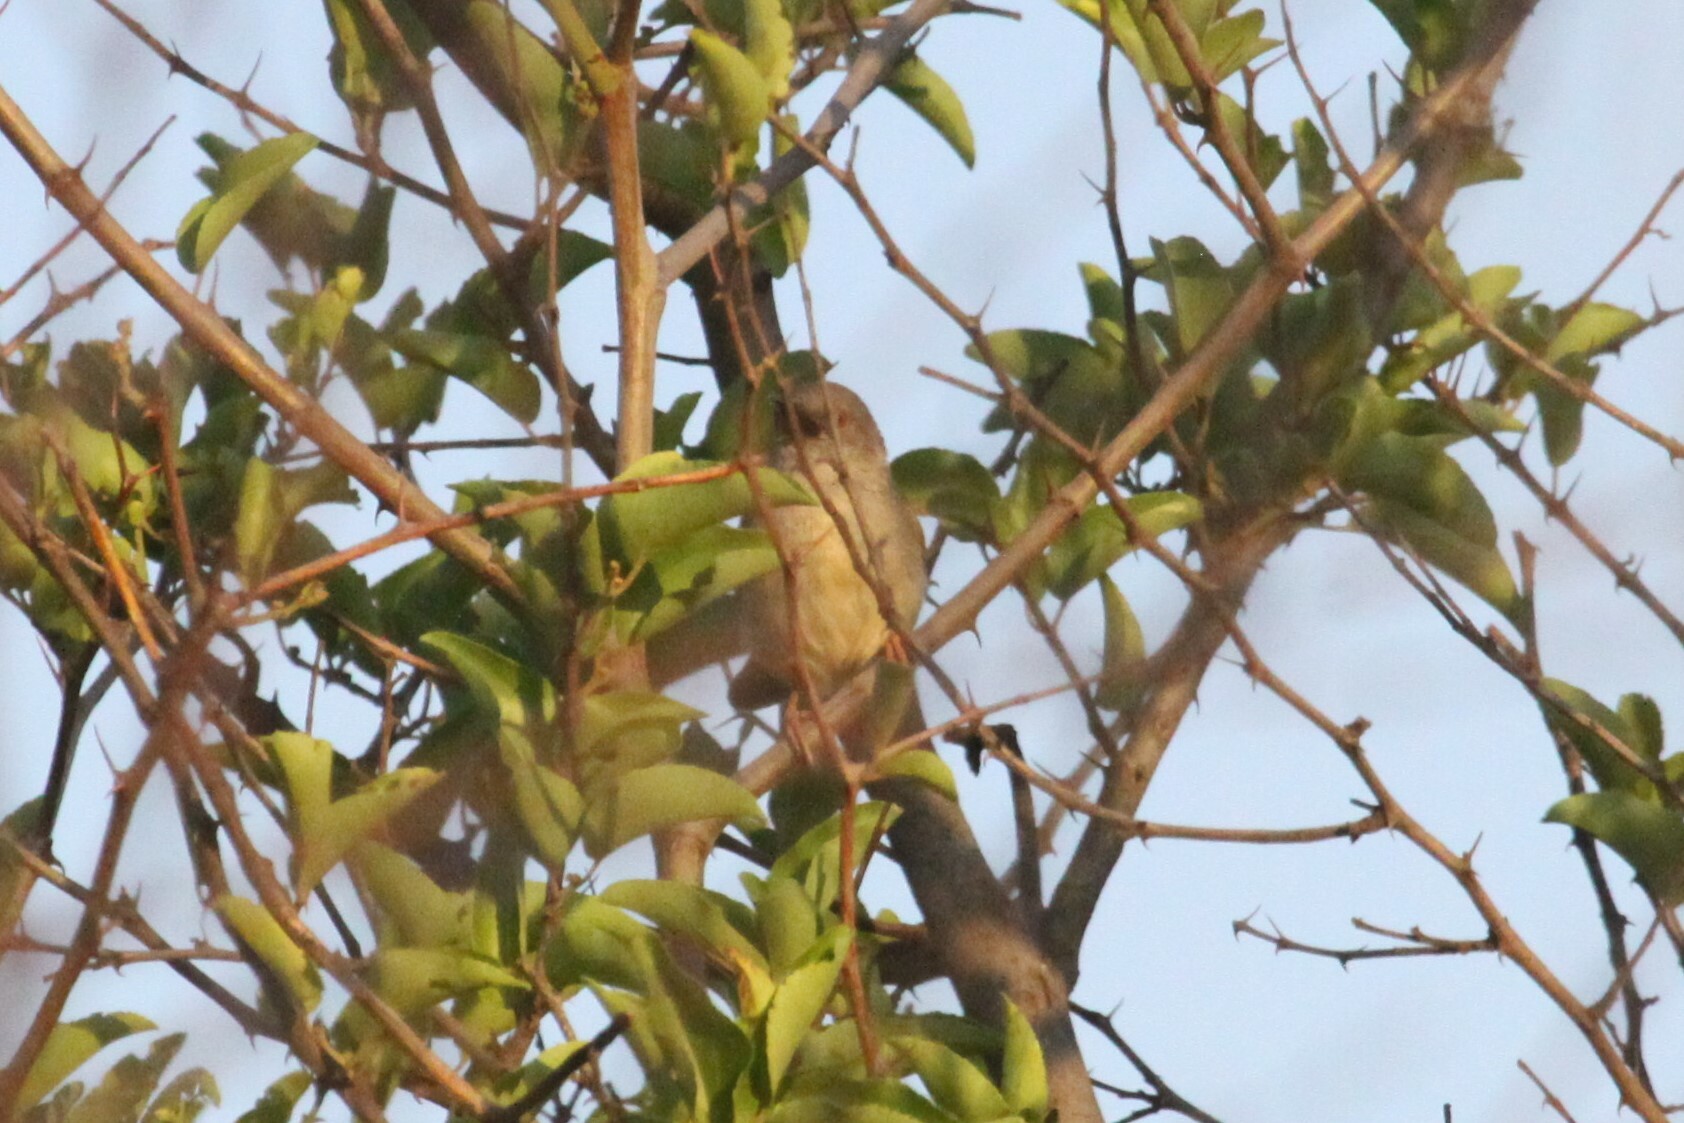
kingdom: Animalia
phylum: Chordata
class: Aves
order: Passeriformes
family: Cisticolidae
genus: Camaroptera
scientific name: Camaroptera brachyura
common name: Green-backed camaroptera
